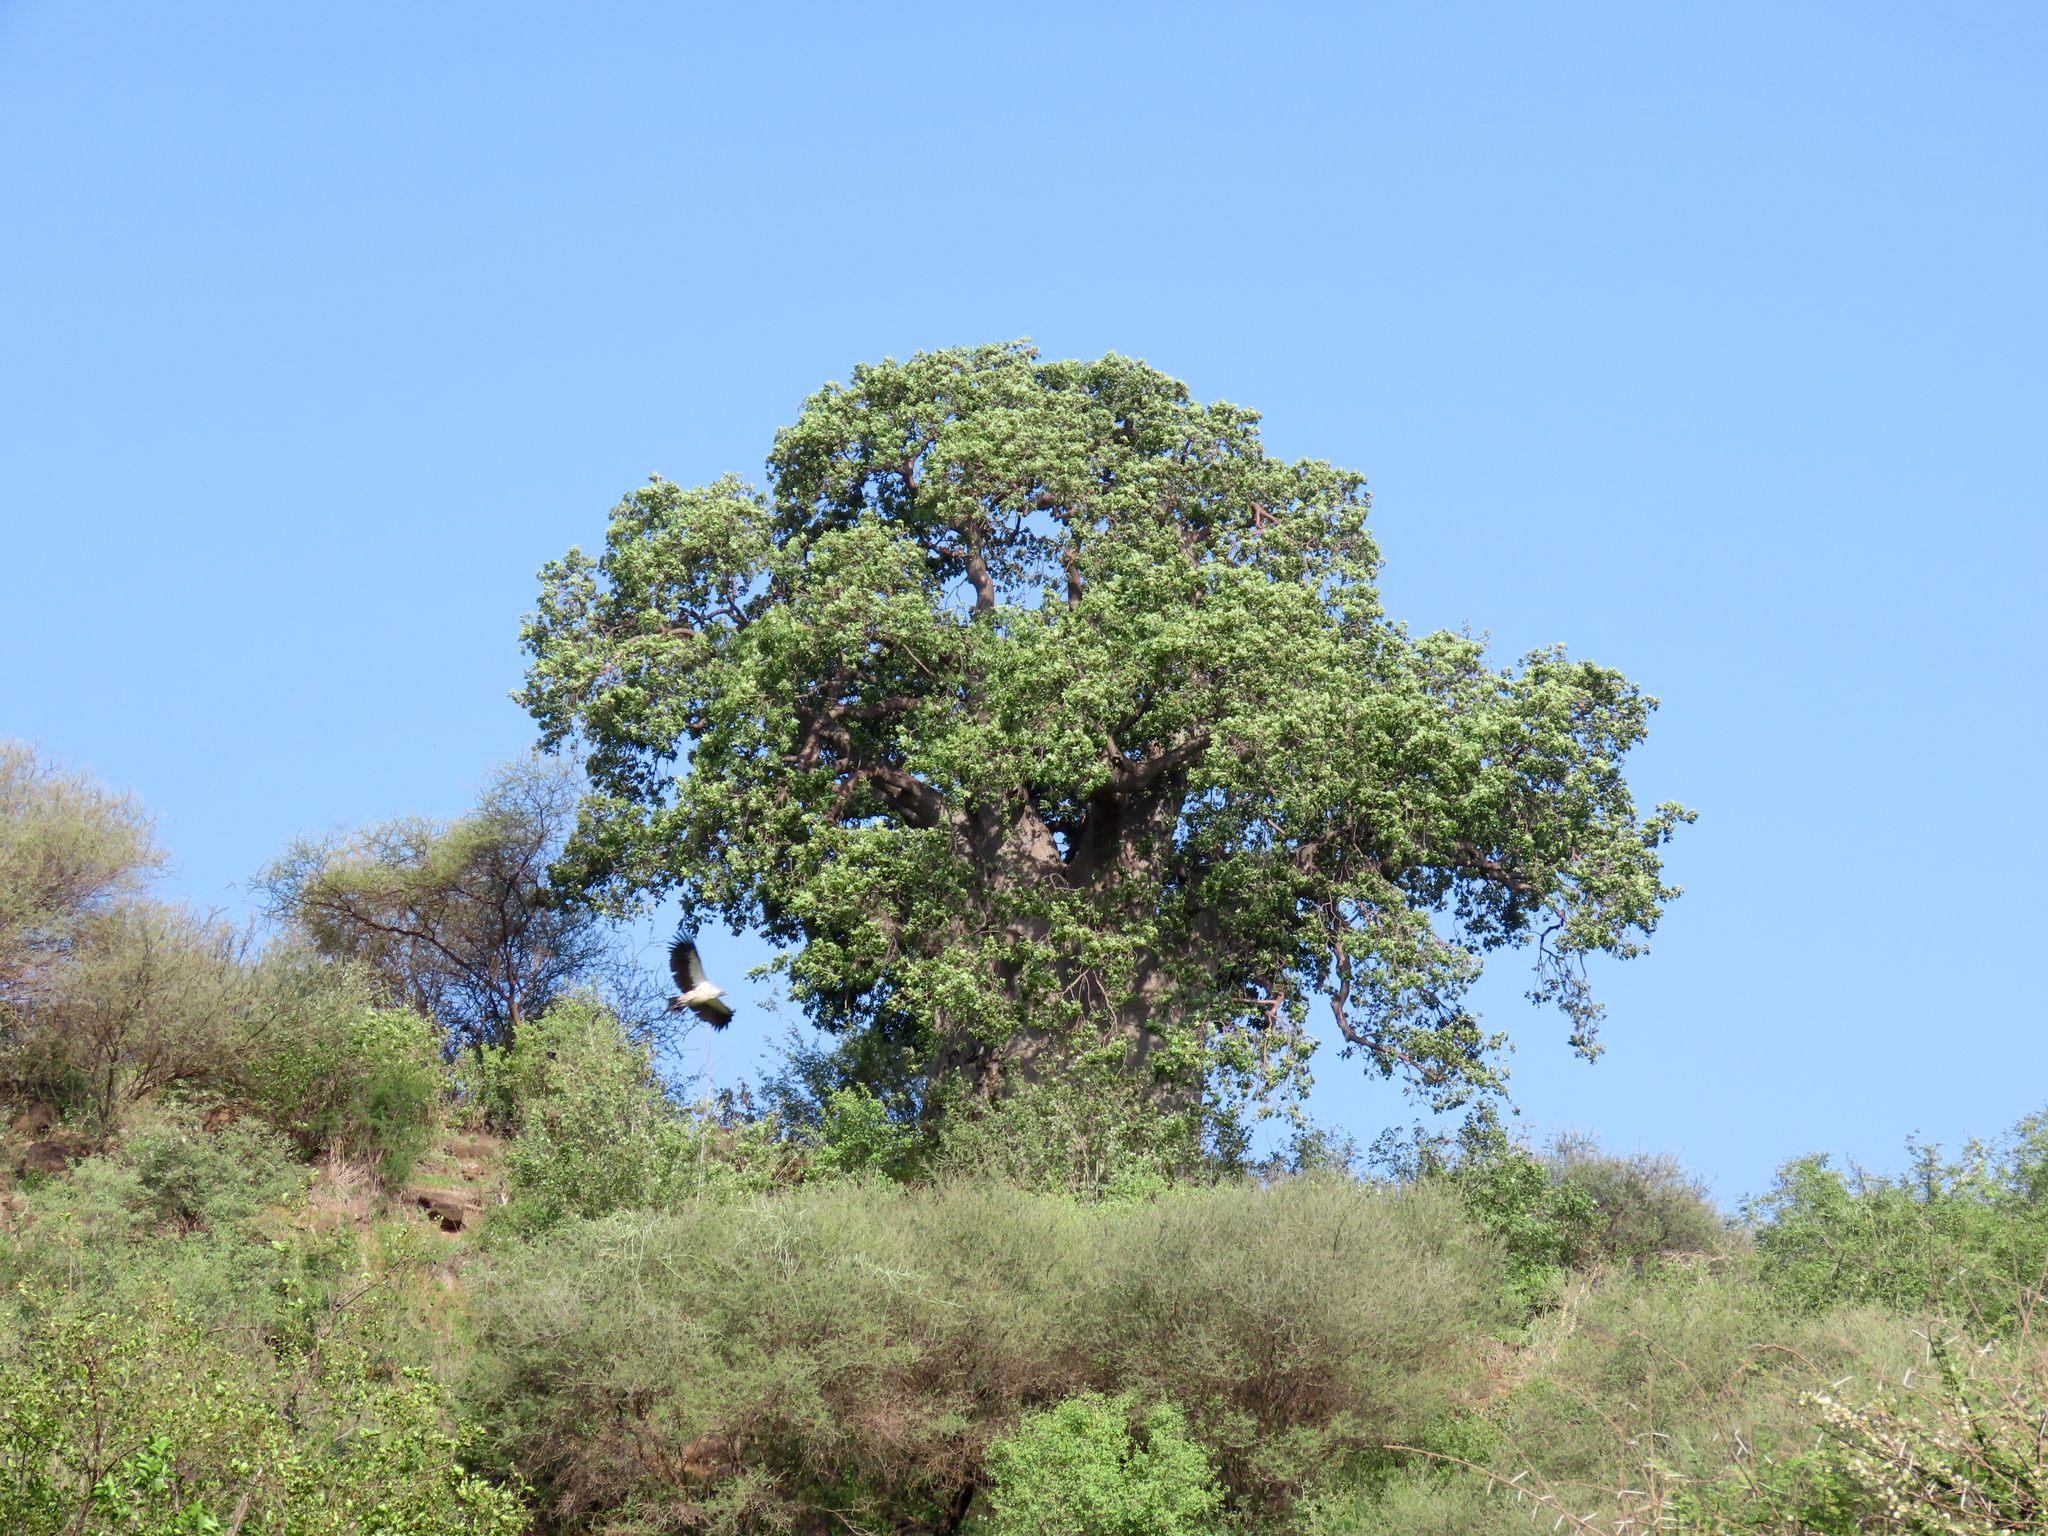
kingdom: Plantae
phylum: Tracheophyta
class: Magnoliopsida
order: Malvales
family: Malvaceae
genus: Adansonia
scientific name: Adansonia digitata
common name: Dead-rat-tree
